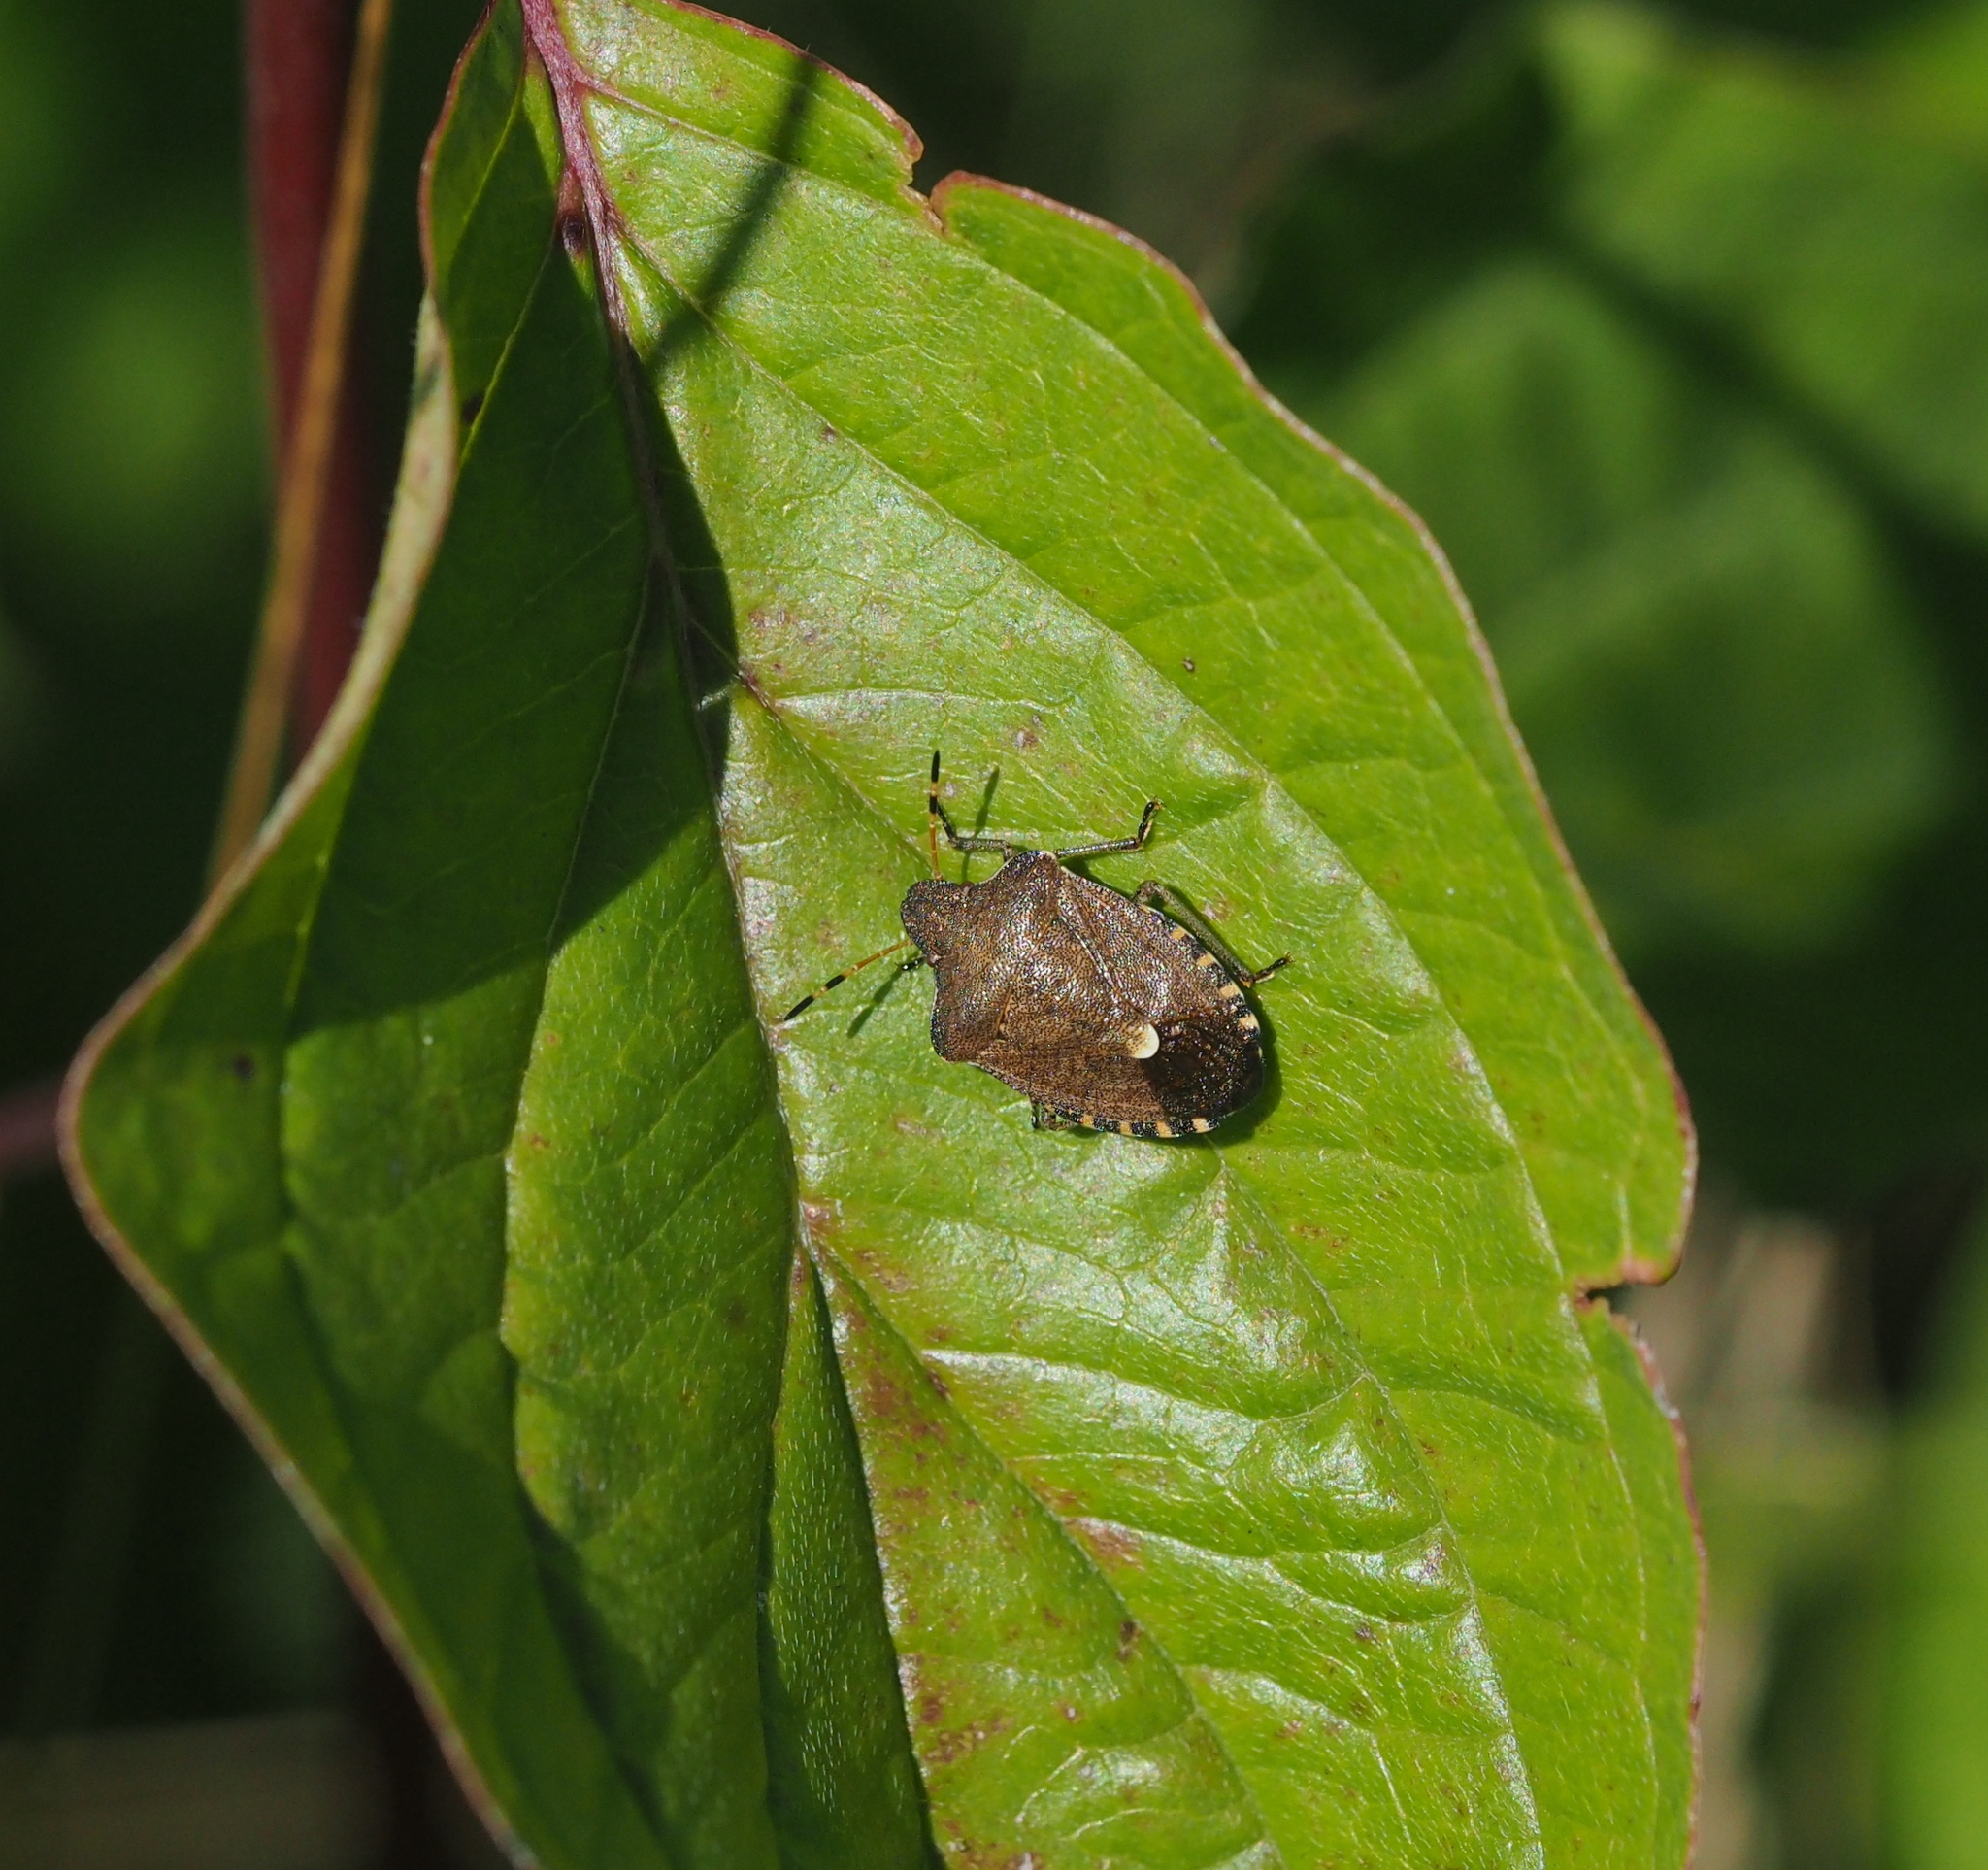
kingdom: Animalia
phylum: Arthropoda
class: Insecta
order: Hemiptera
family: Pentatomidae
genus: Holcostethus
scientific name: Holcostethus strictus
